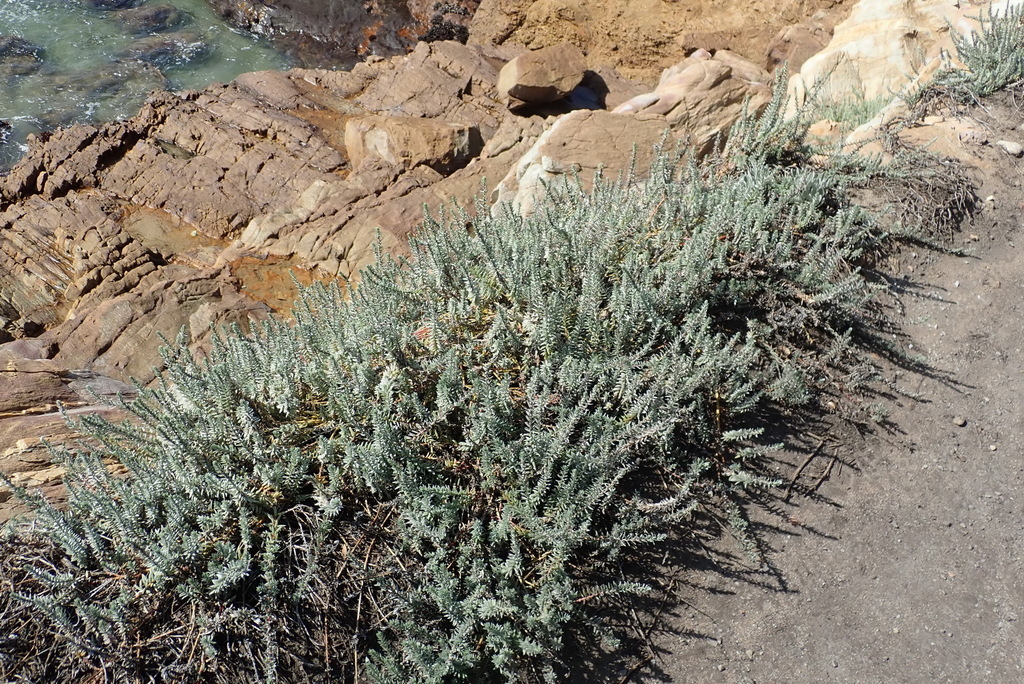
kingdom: Plantae
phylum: Tracheophyta
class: Magnoliopsida
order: Caryophyllales
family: Amaranthaceae
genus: Chenolea
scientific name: Chenolea diffusa
